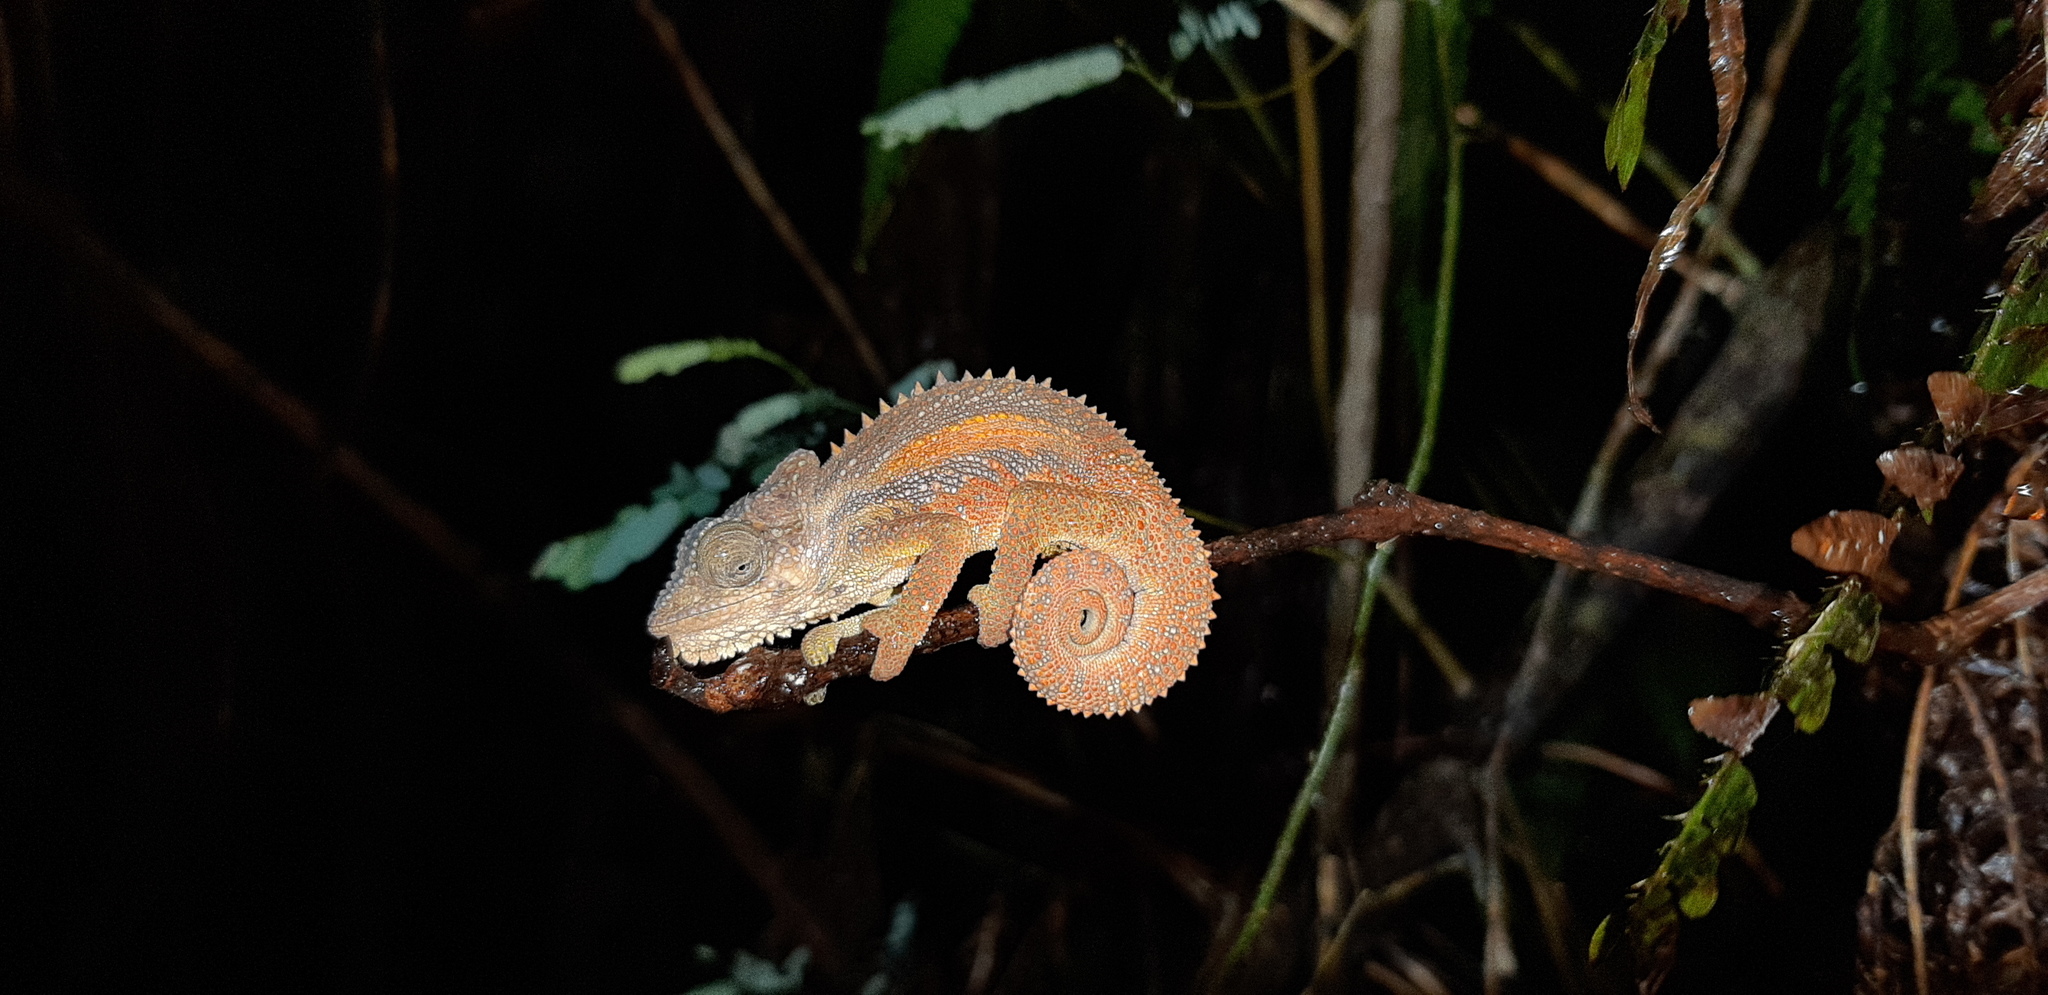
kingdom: Animalia
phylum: Chordata
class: Squamata
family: Chamaeleonidae
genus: Bradypodion
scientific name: Bradypodion transvaalense
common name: Transvaal dwarf chameleon
